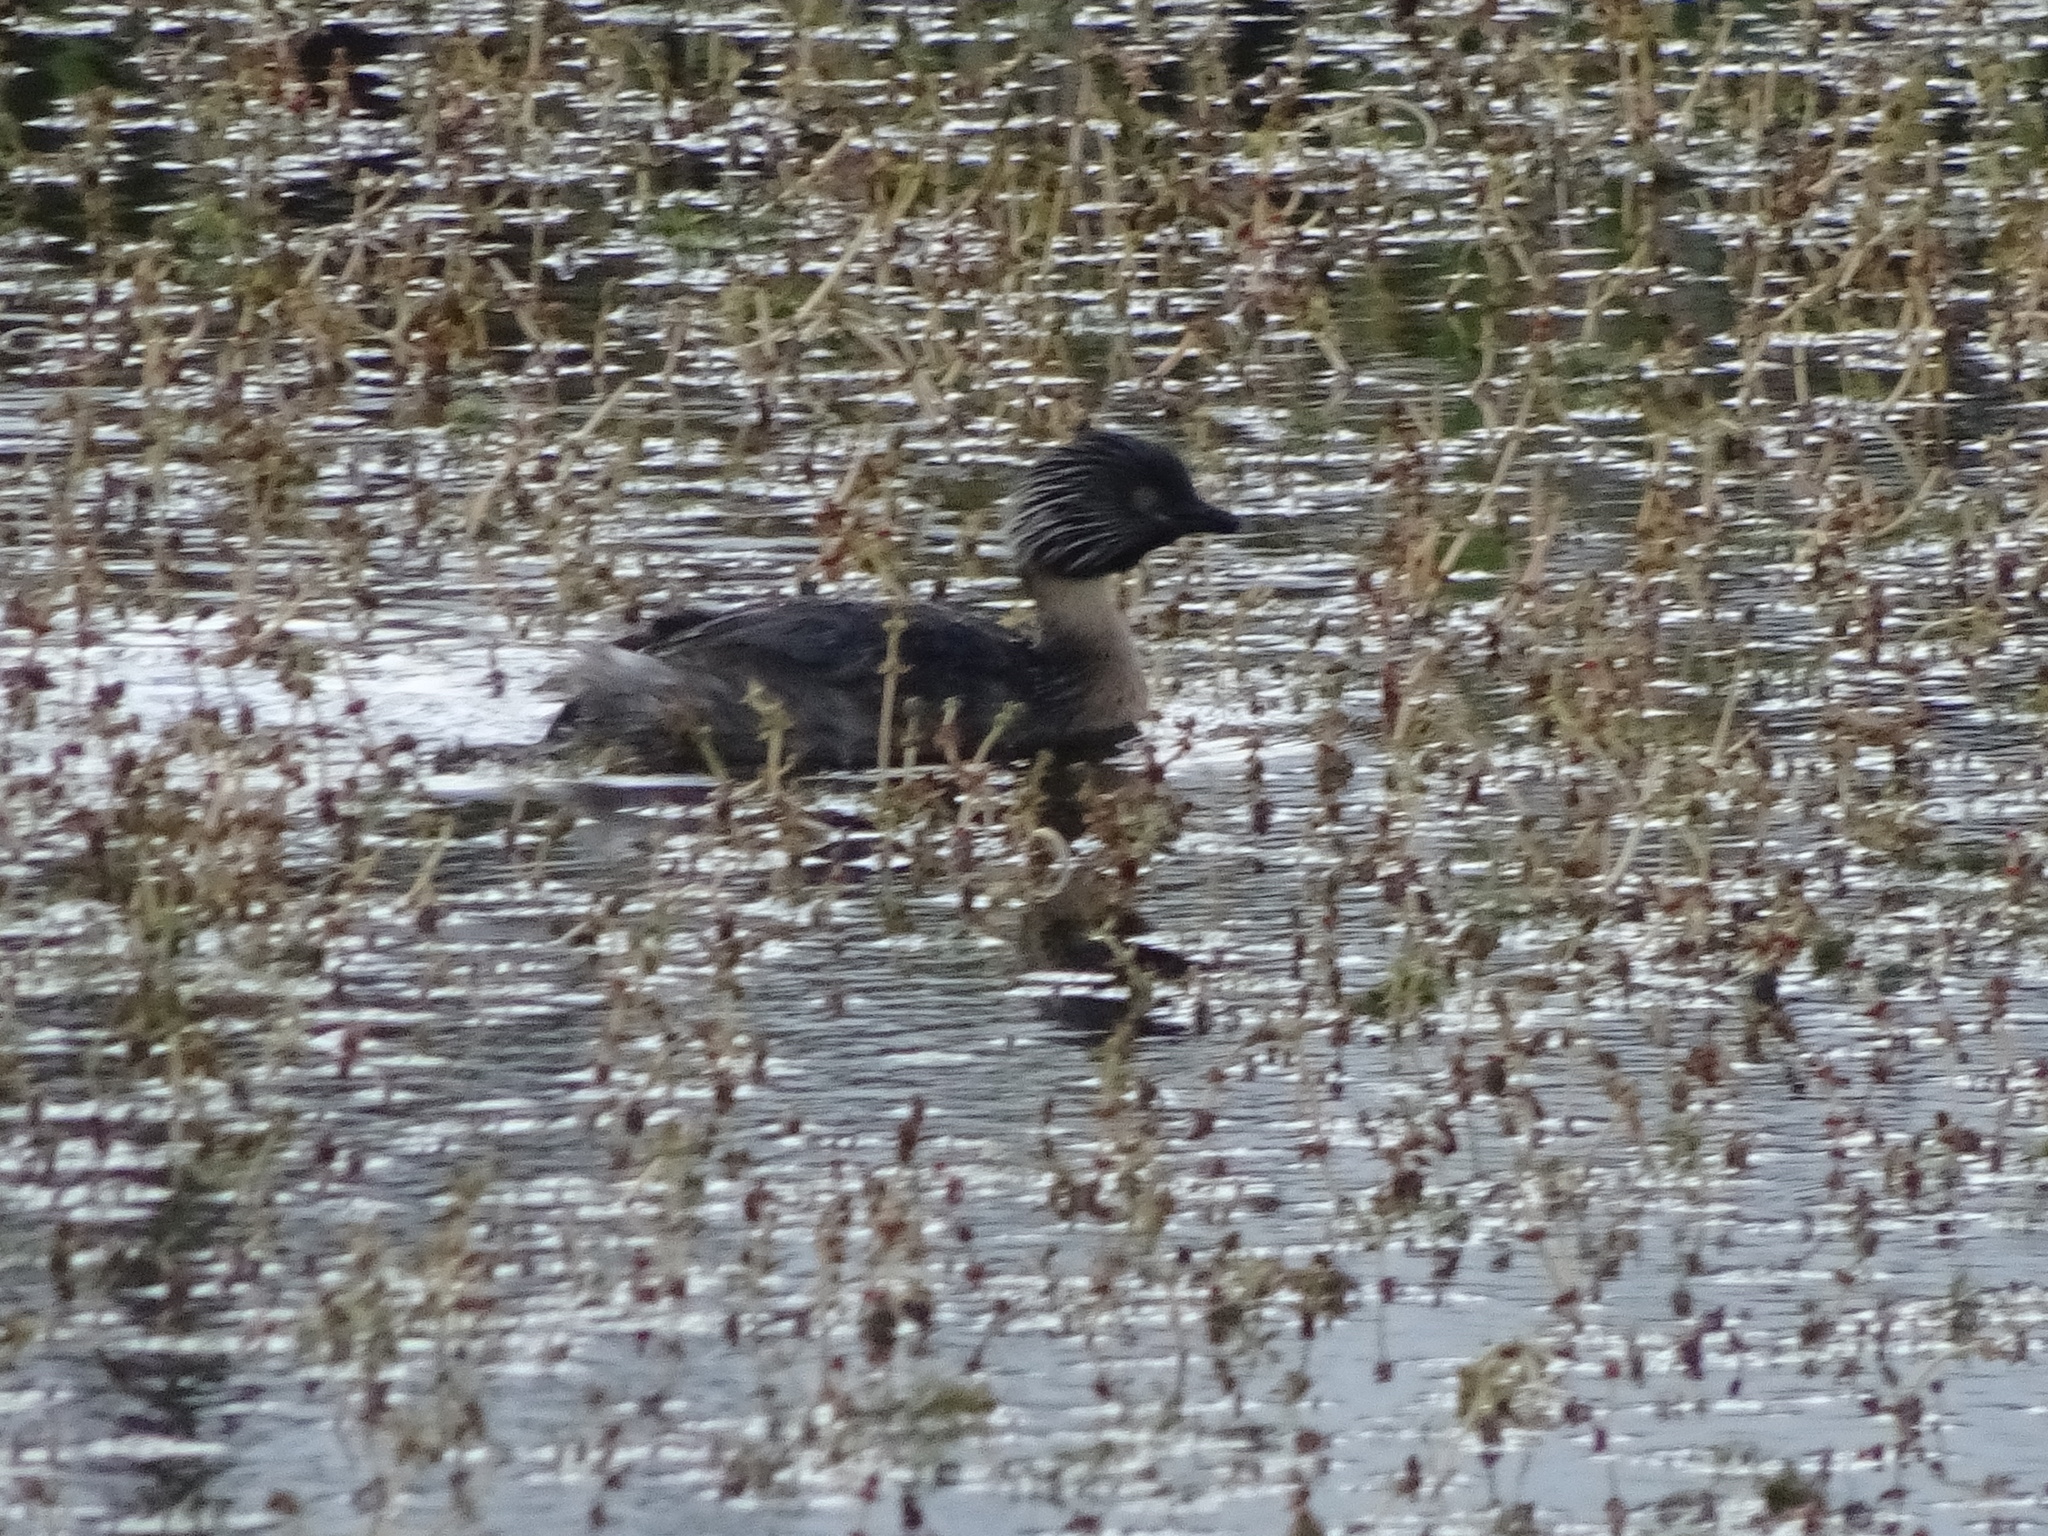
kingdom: Animalia
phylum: Chordata
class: Aves
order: Podicipediformes
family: Podicipedidae
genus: Poliocephalus
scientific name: Poliocephalus poliocephalus
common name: Hoary-headed grebe
